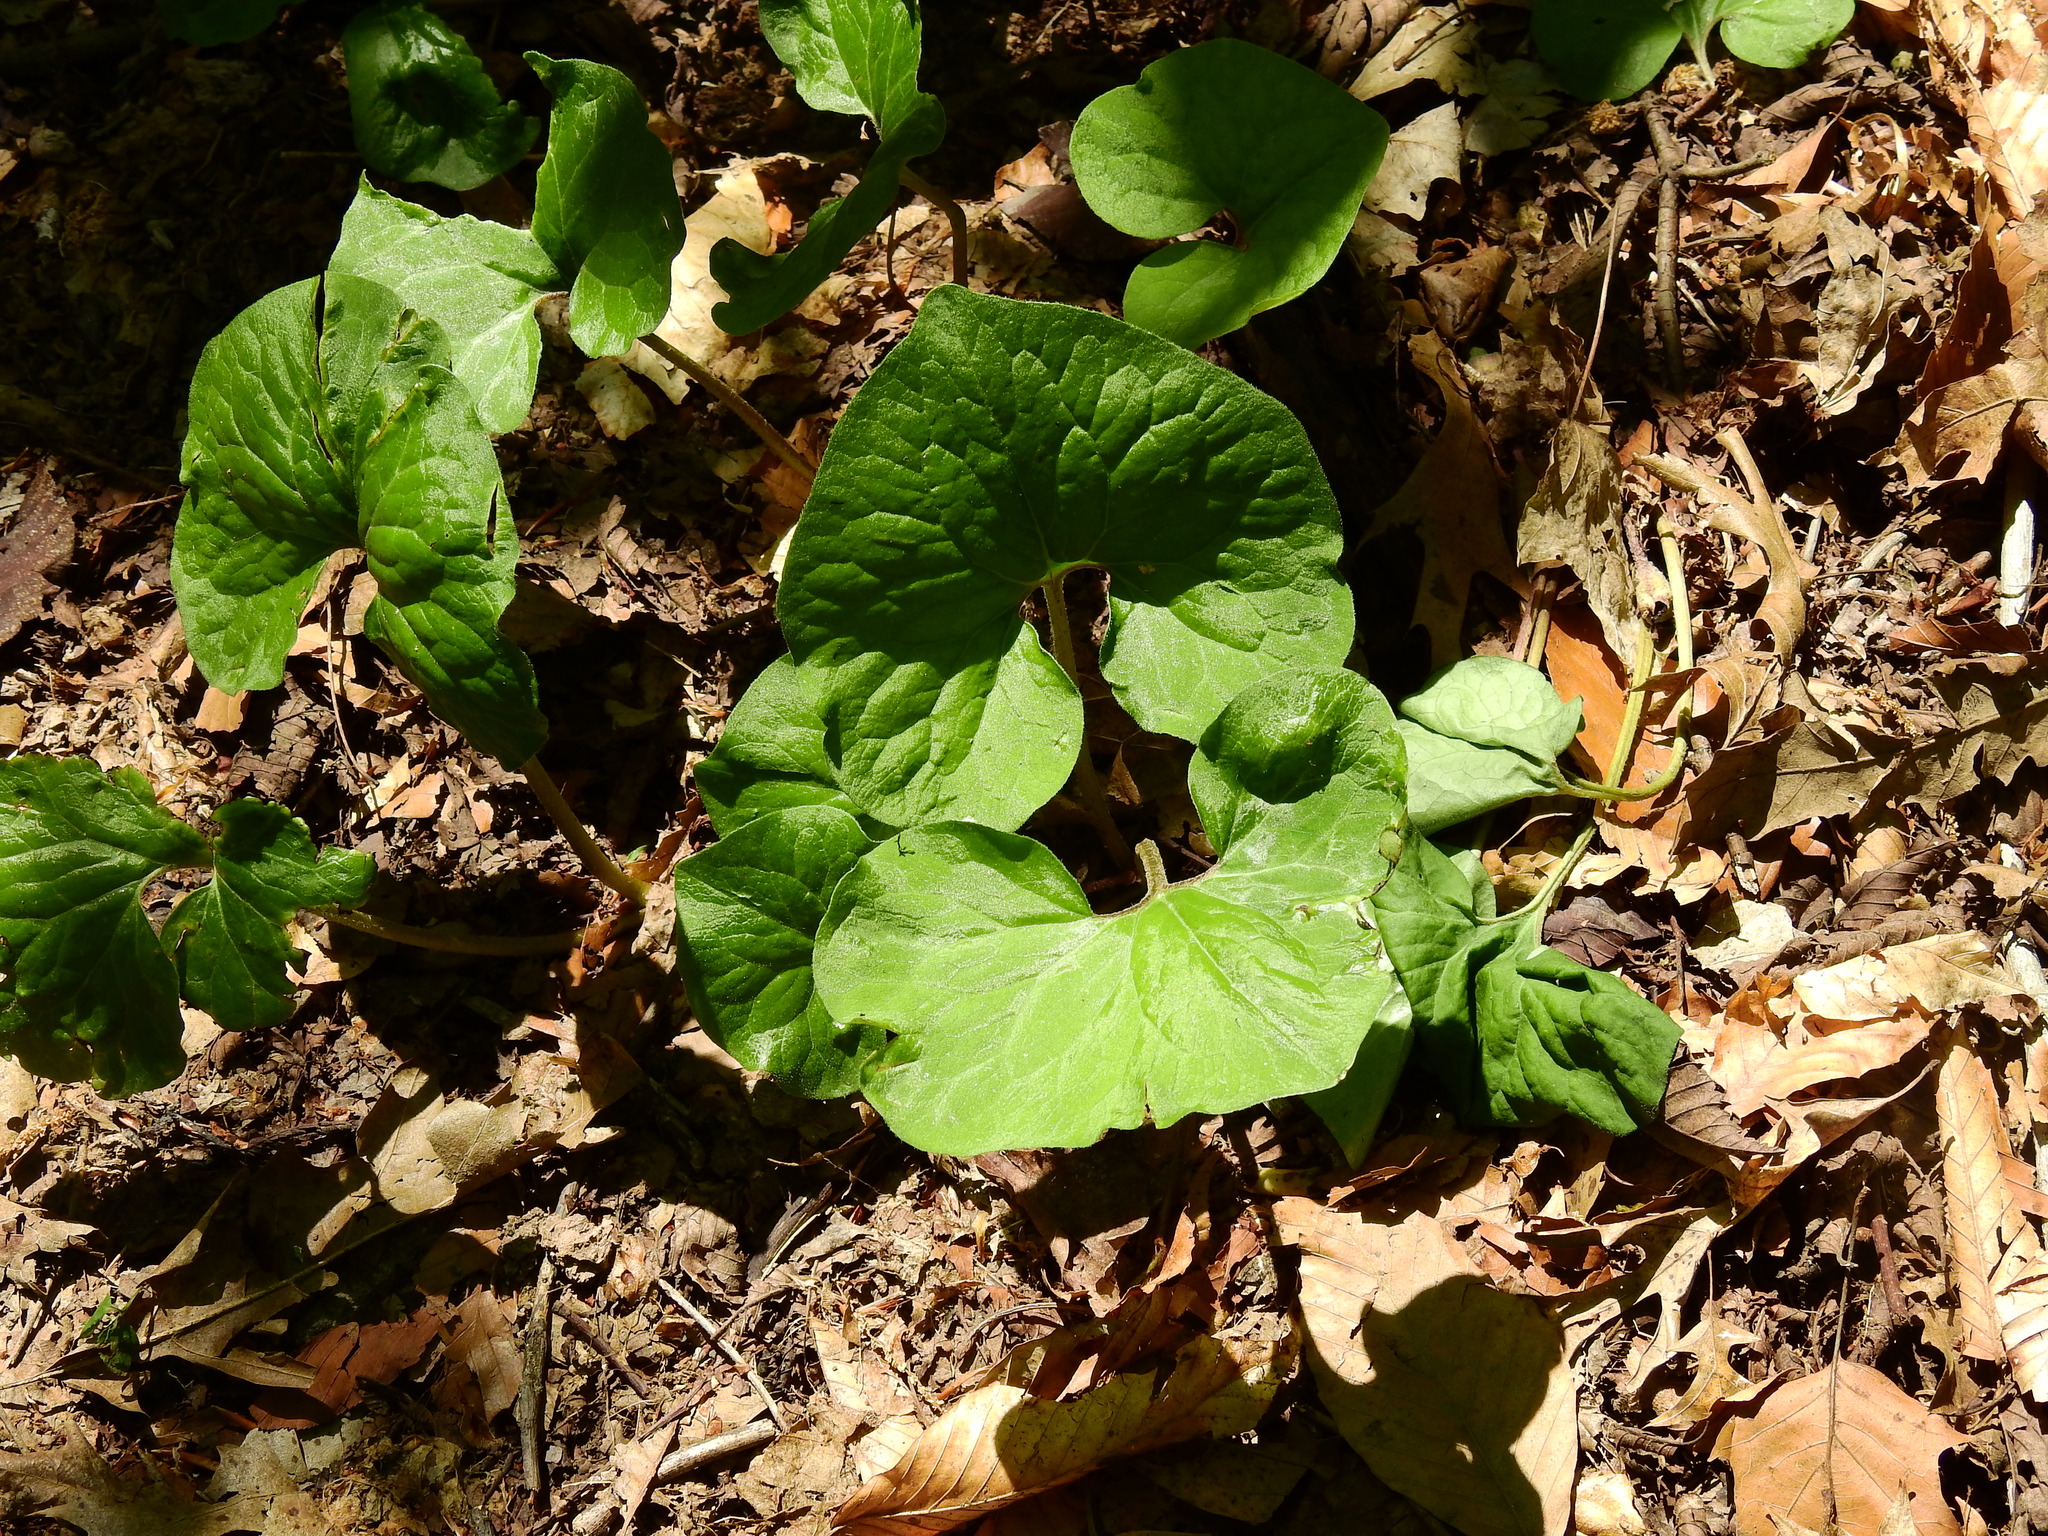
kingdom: Plantae
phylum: Tracheophyta
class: Magnoliopsida
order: Piperales
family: Aristolochiaceae
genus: Asarum
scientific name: Asarum canadense
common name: Wild ginger
